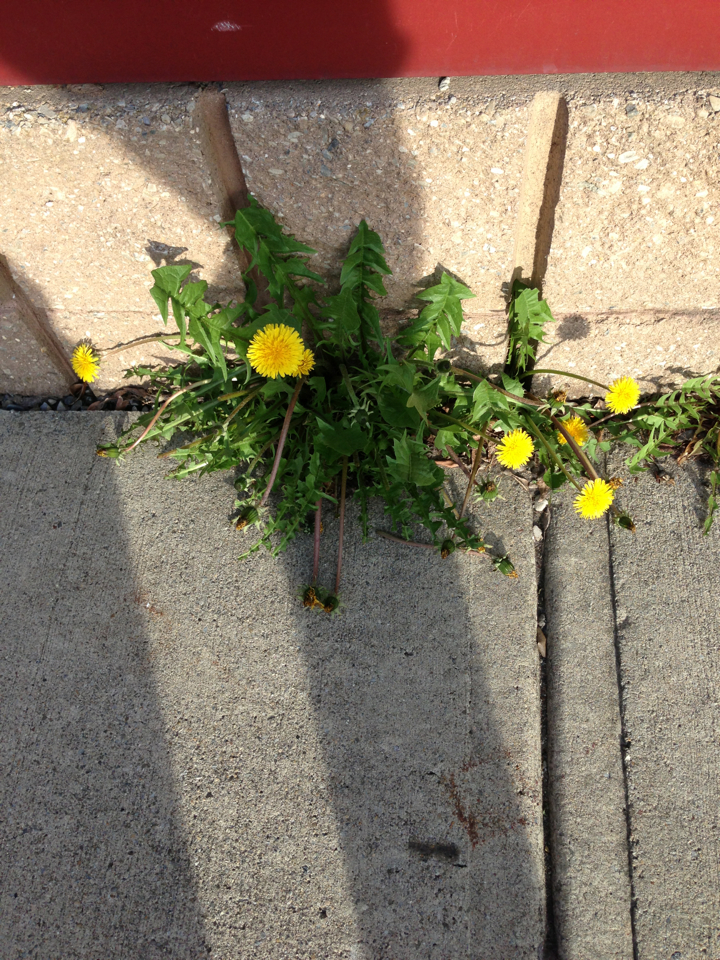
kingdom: Plantae
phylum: Tracheophyta
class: Magnoliopsida
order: Asterales
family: Asteraceae
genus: Taraxacum
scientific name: Taraxacum
